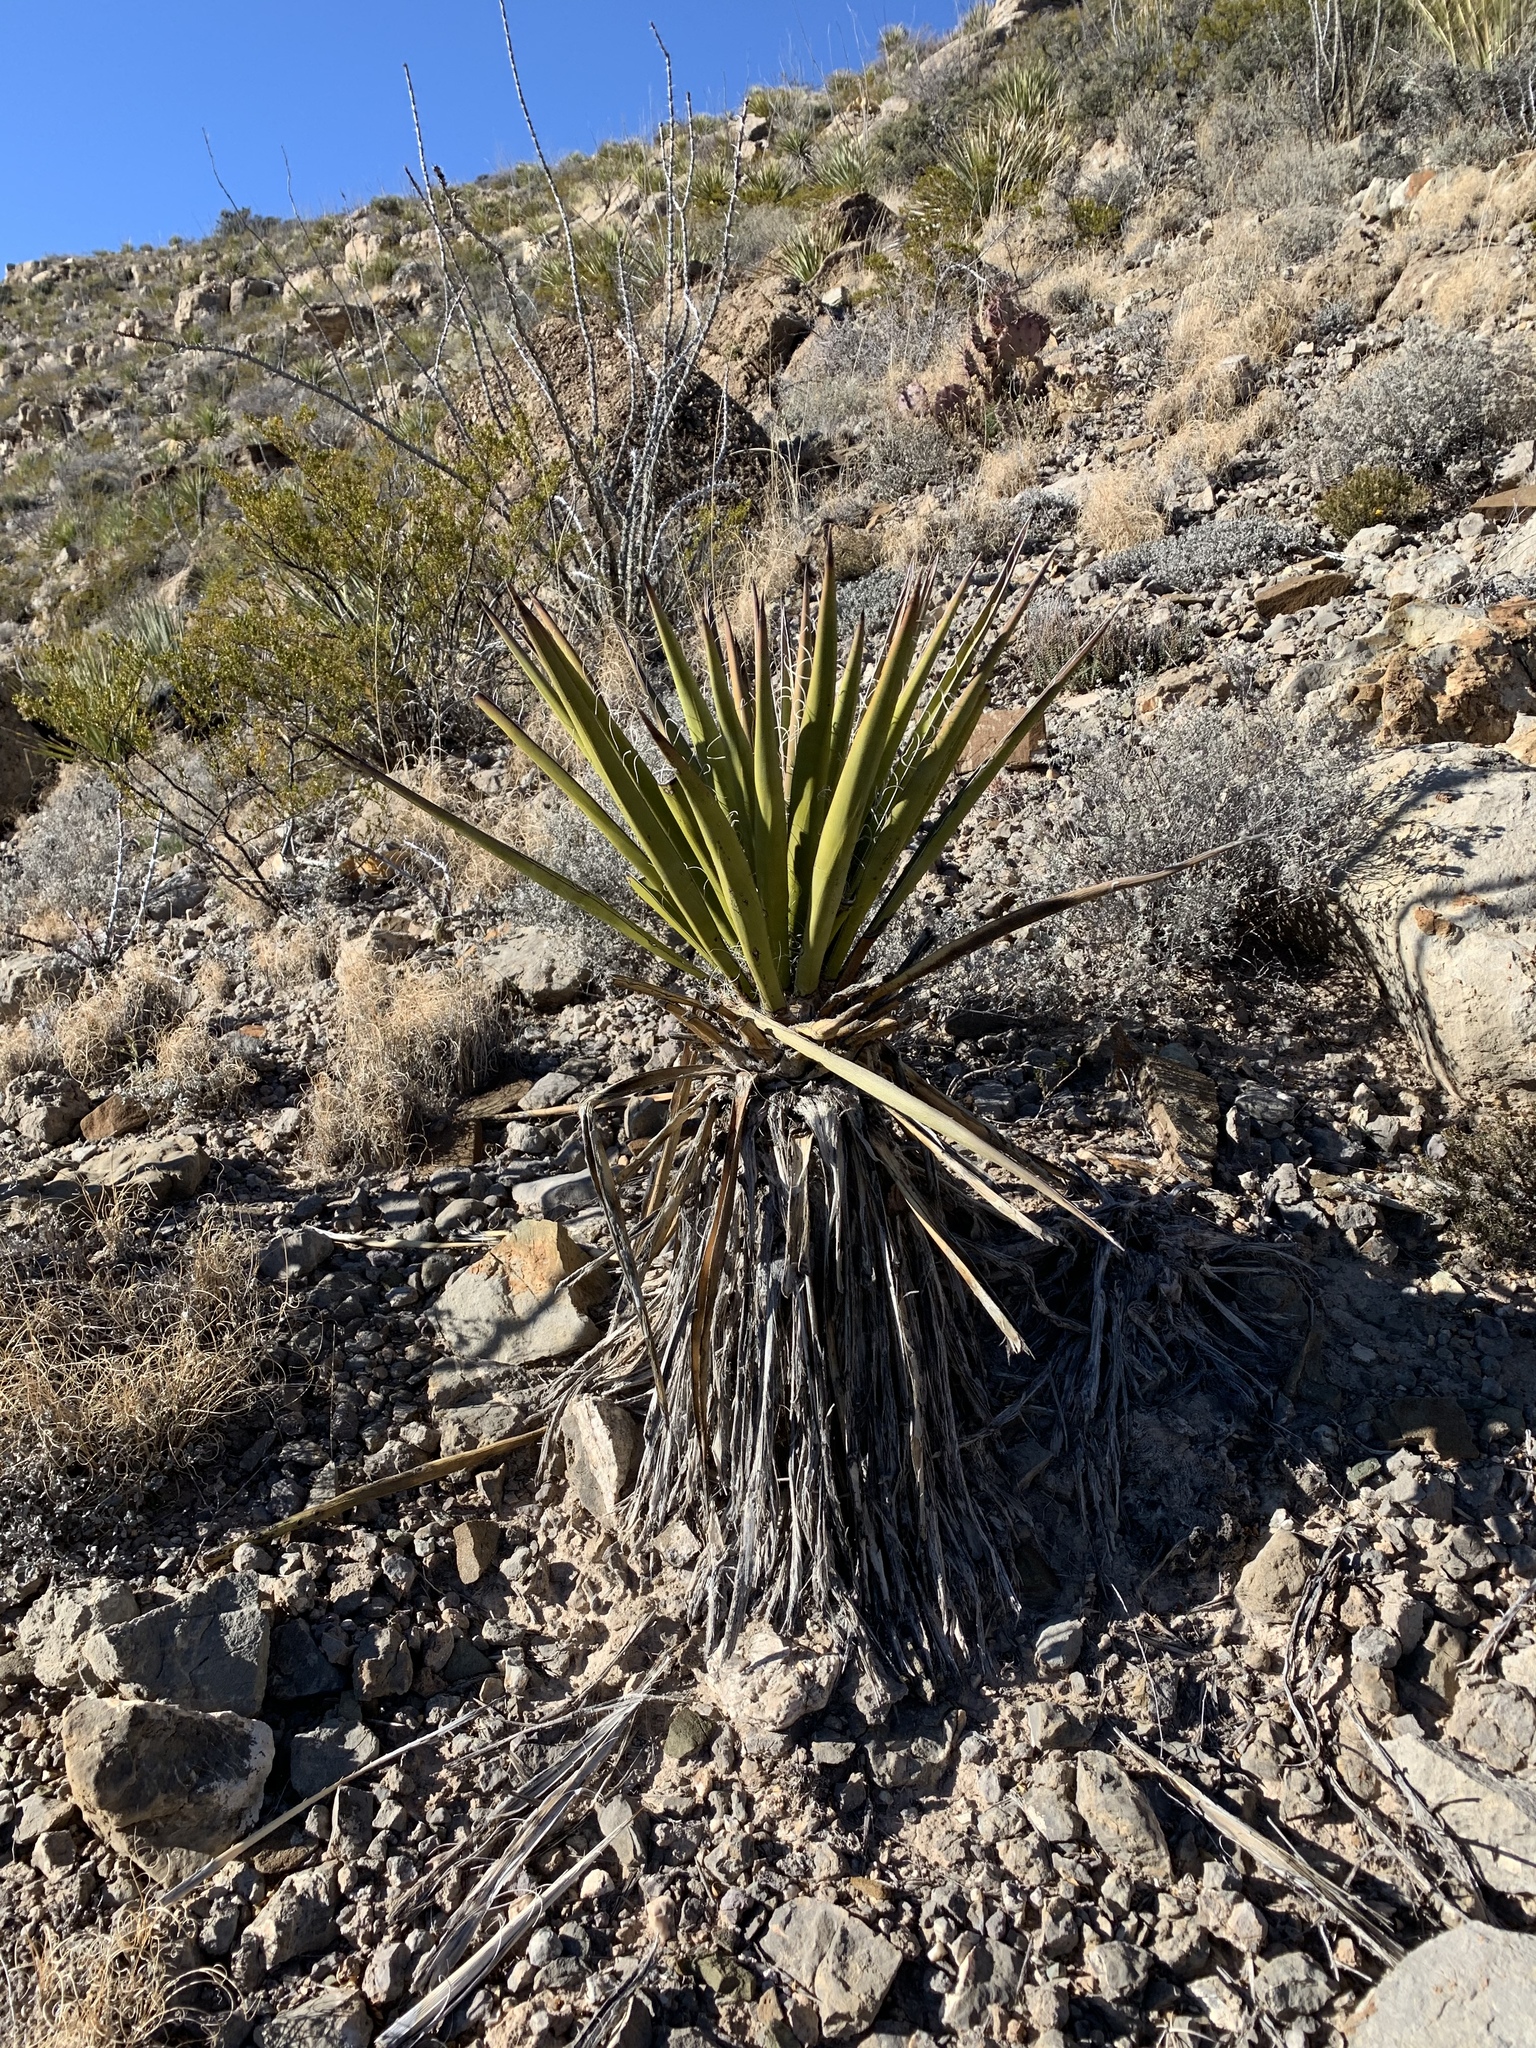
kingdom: Plantae
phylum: Tracheophyta
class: Liliopsida
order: Asparagales
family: Asparagaceae
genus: Yucca
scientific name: Yucca treculiana
